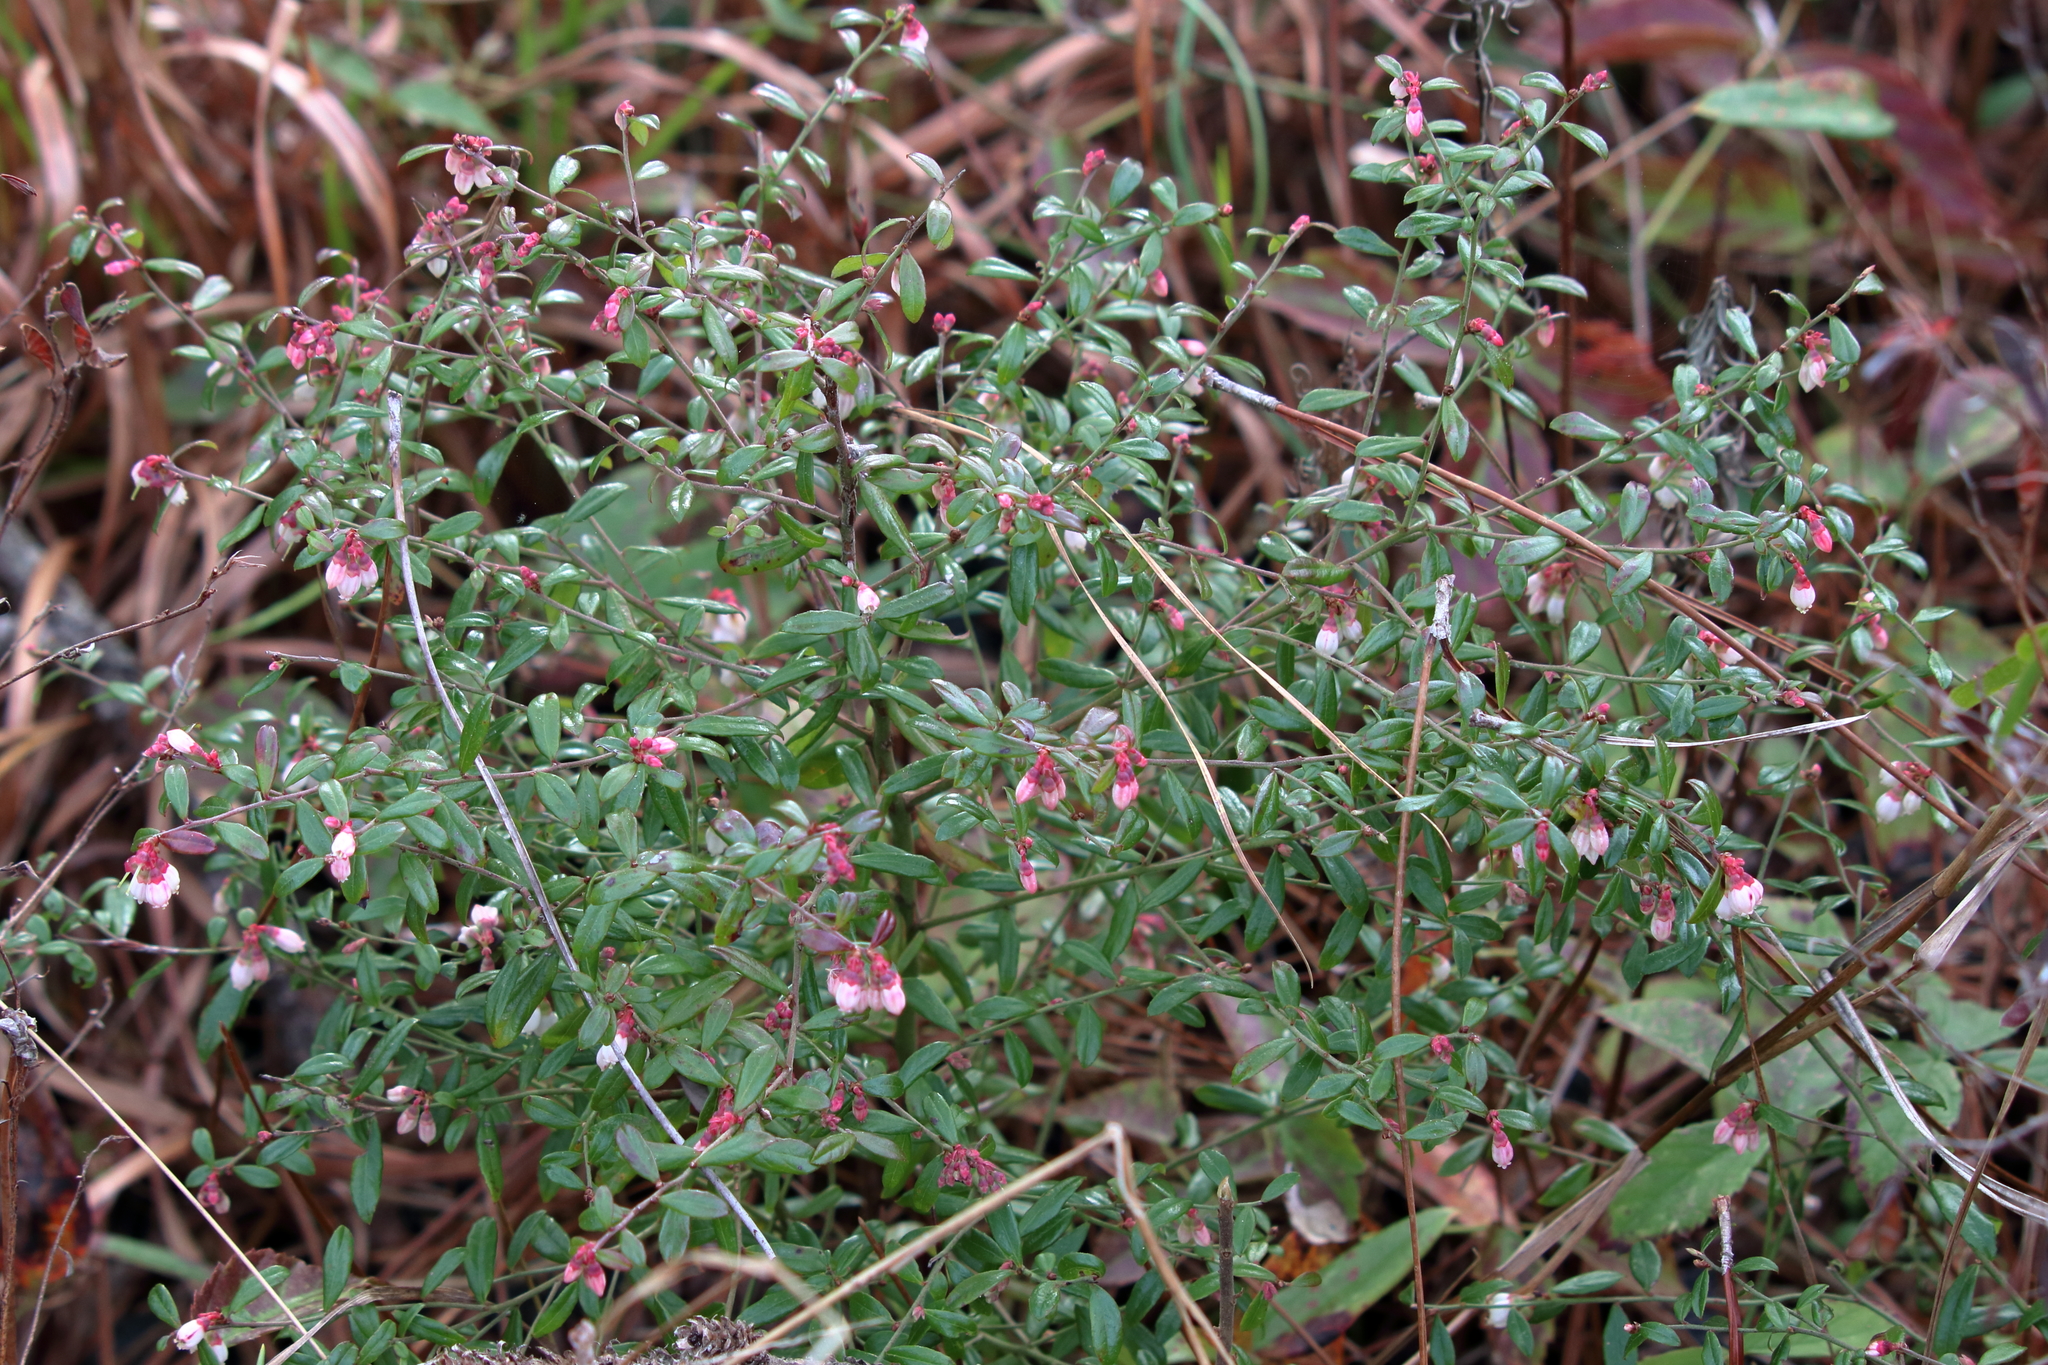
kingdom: Plantae
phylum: Tracheophyta
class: Magnoliopsida
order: Ericales
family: Ericaceae
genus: Vaccinium
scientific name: Vaccinium myrsinites
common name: Evergreen blueberry
